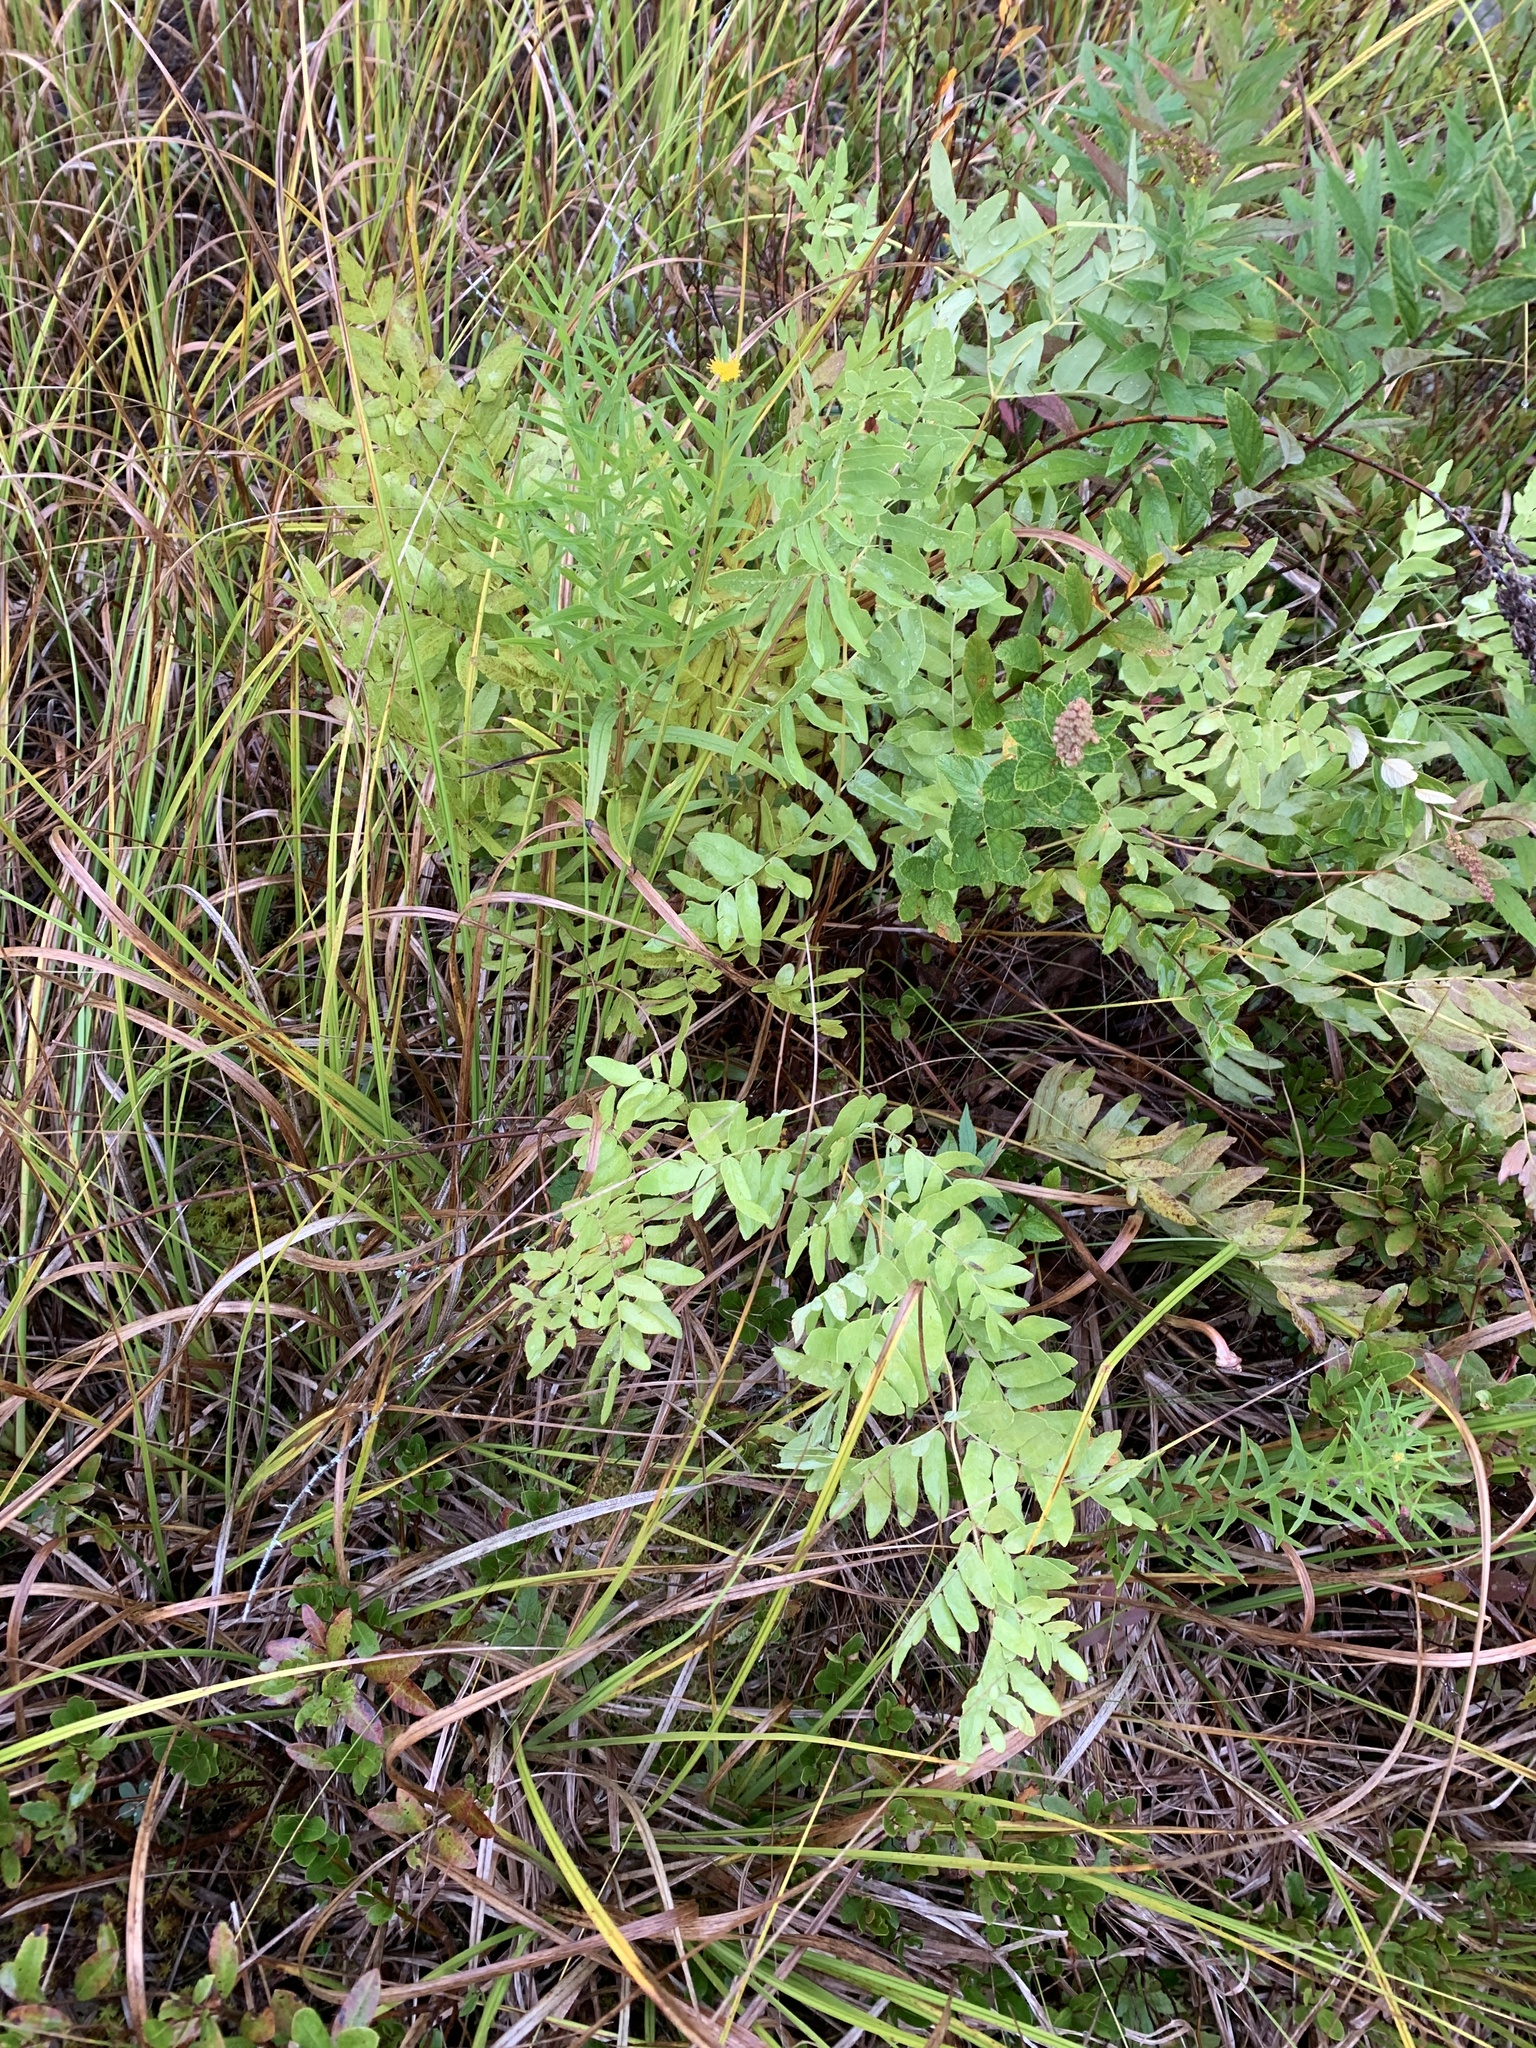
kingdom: Plantae
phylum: Tracheophyta
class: Polypodiopsida
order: Osmundales
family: Osmundaceae
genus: Osmunda
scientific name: Osmunda spectabilis
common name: American royal fern
